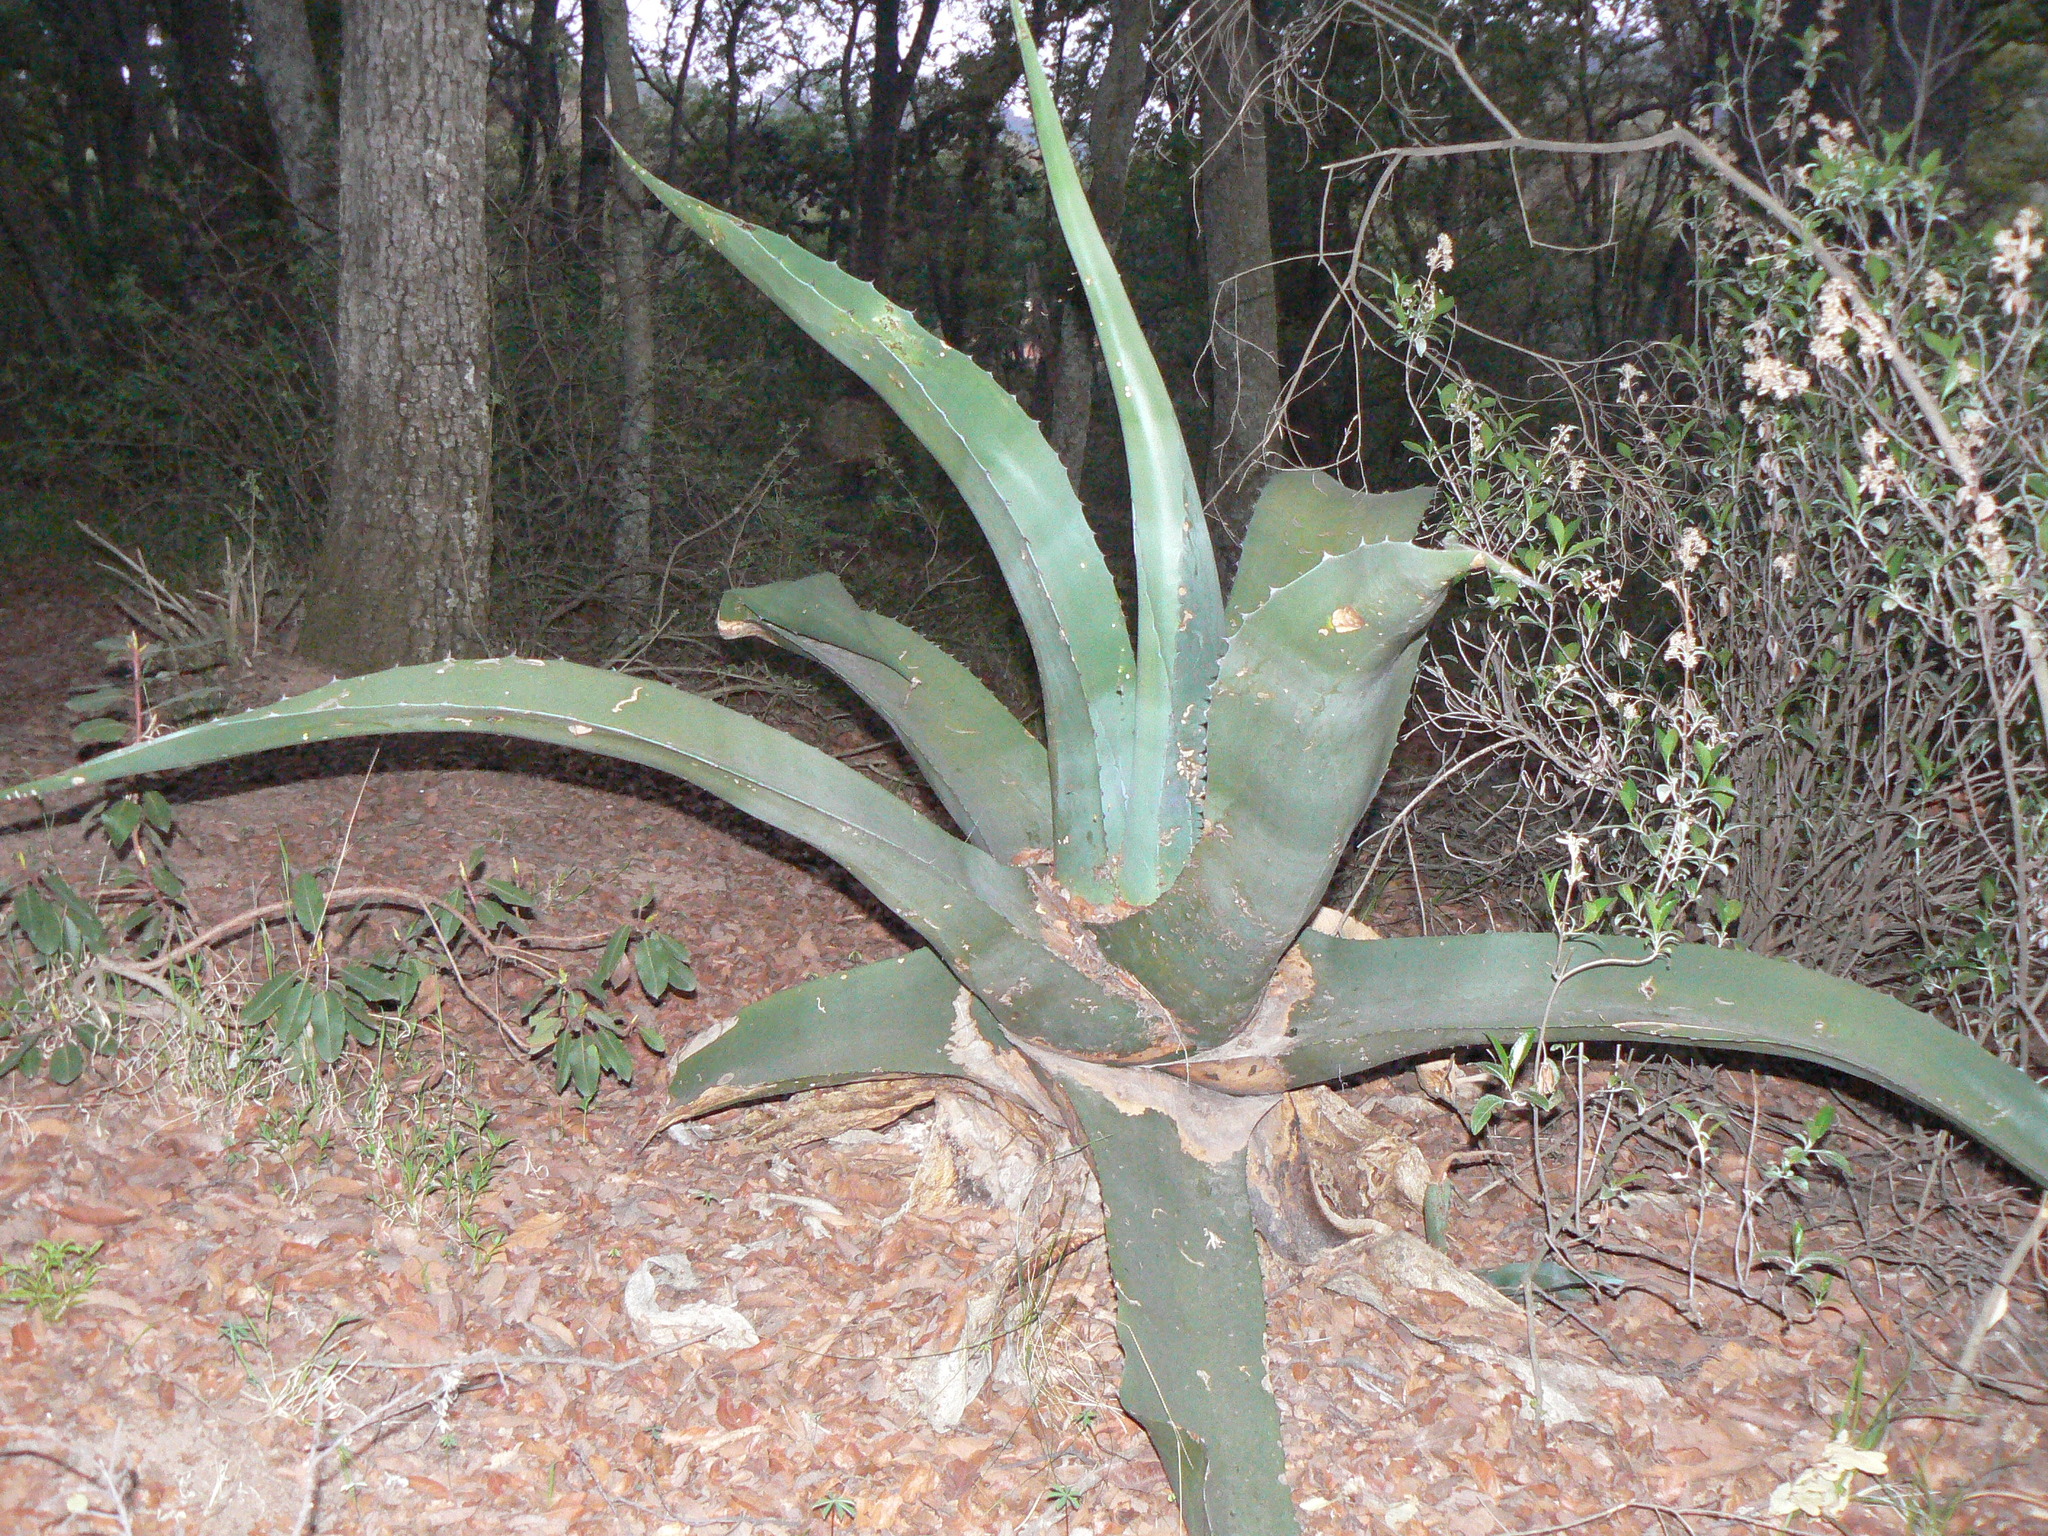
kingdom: Plantae
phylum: Tracheophyta
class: Liliopsida
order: Asparagales
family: Asparagaceae
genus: Agave
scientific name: Agave salmiana
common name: Pulque agave
